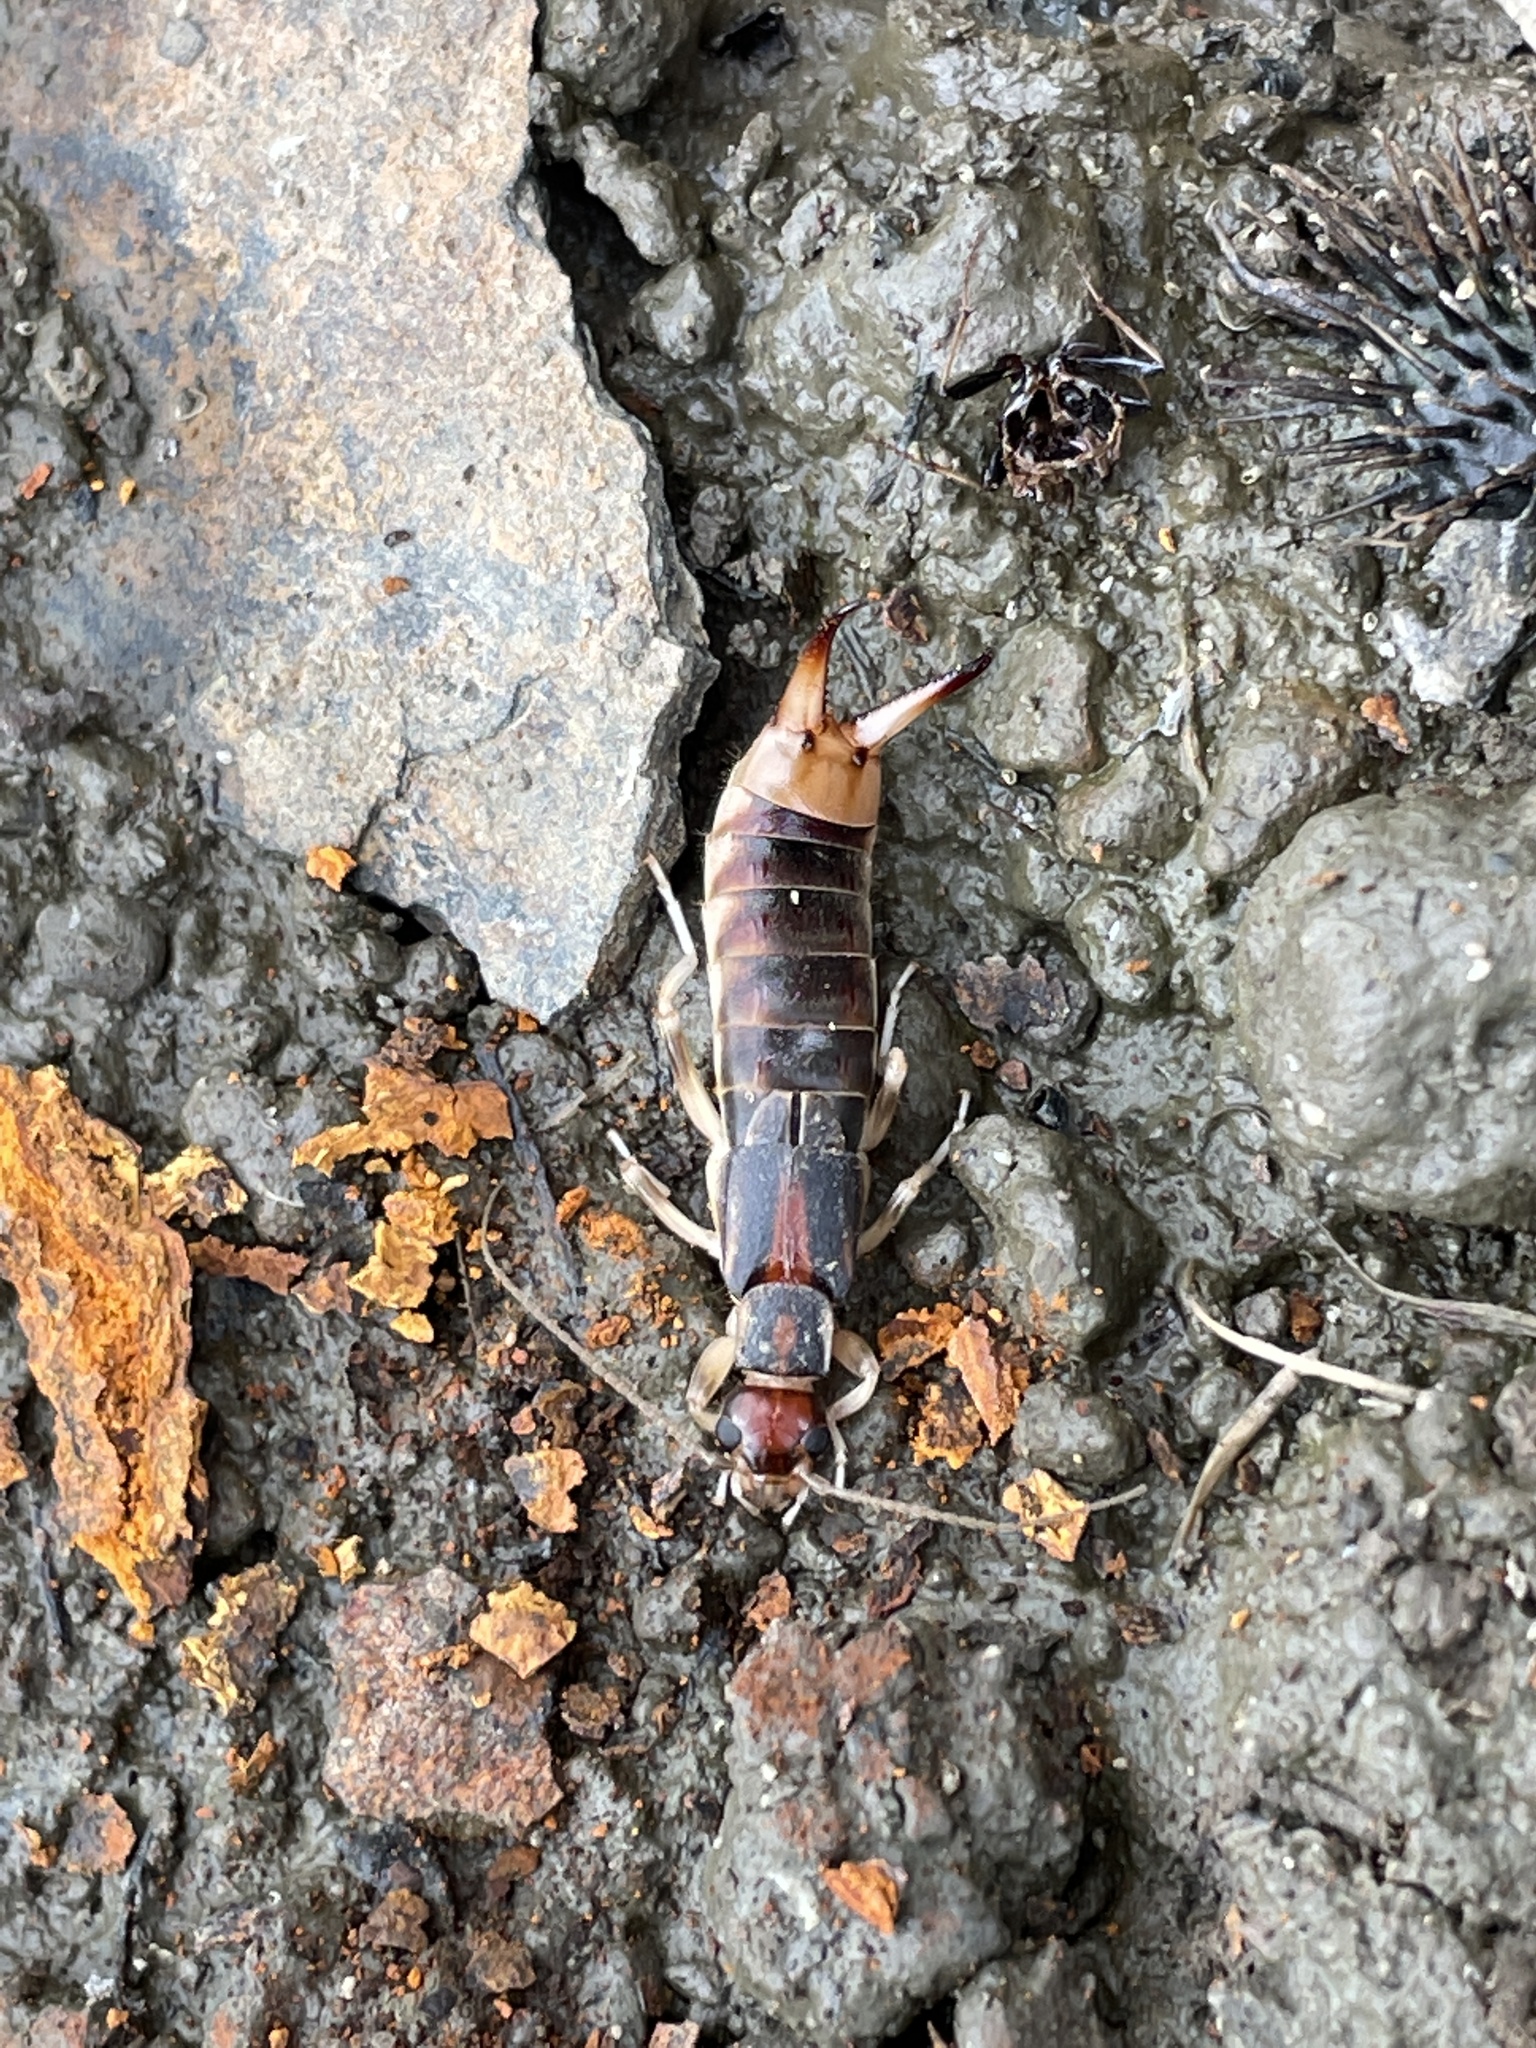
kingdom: Animalia
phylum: Arthropoda
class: Insecta
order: Dermaptera
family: Labiduridae
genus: Labidura
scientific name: Labidura riparia
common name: Striped earwig
